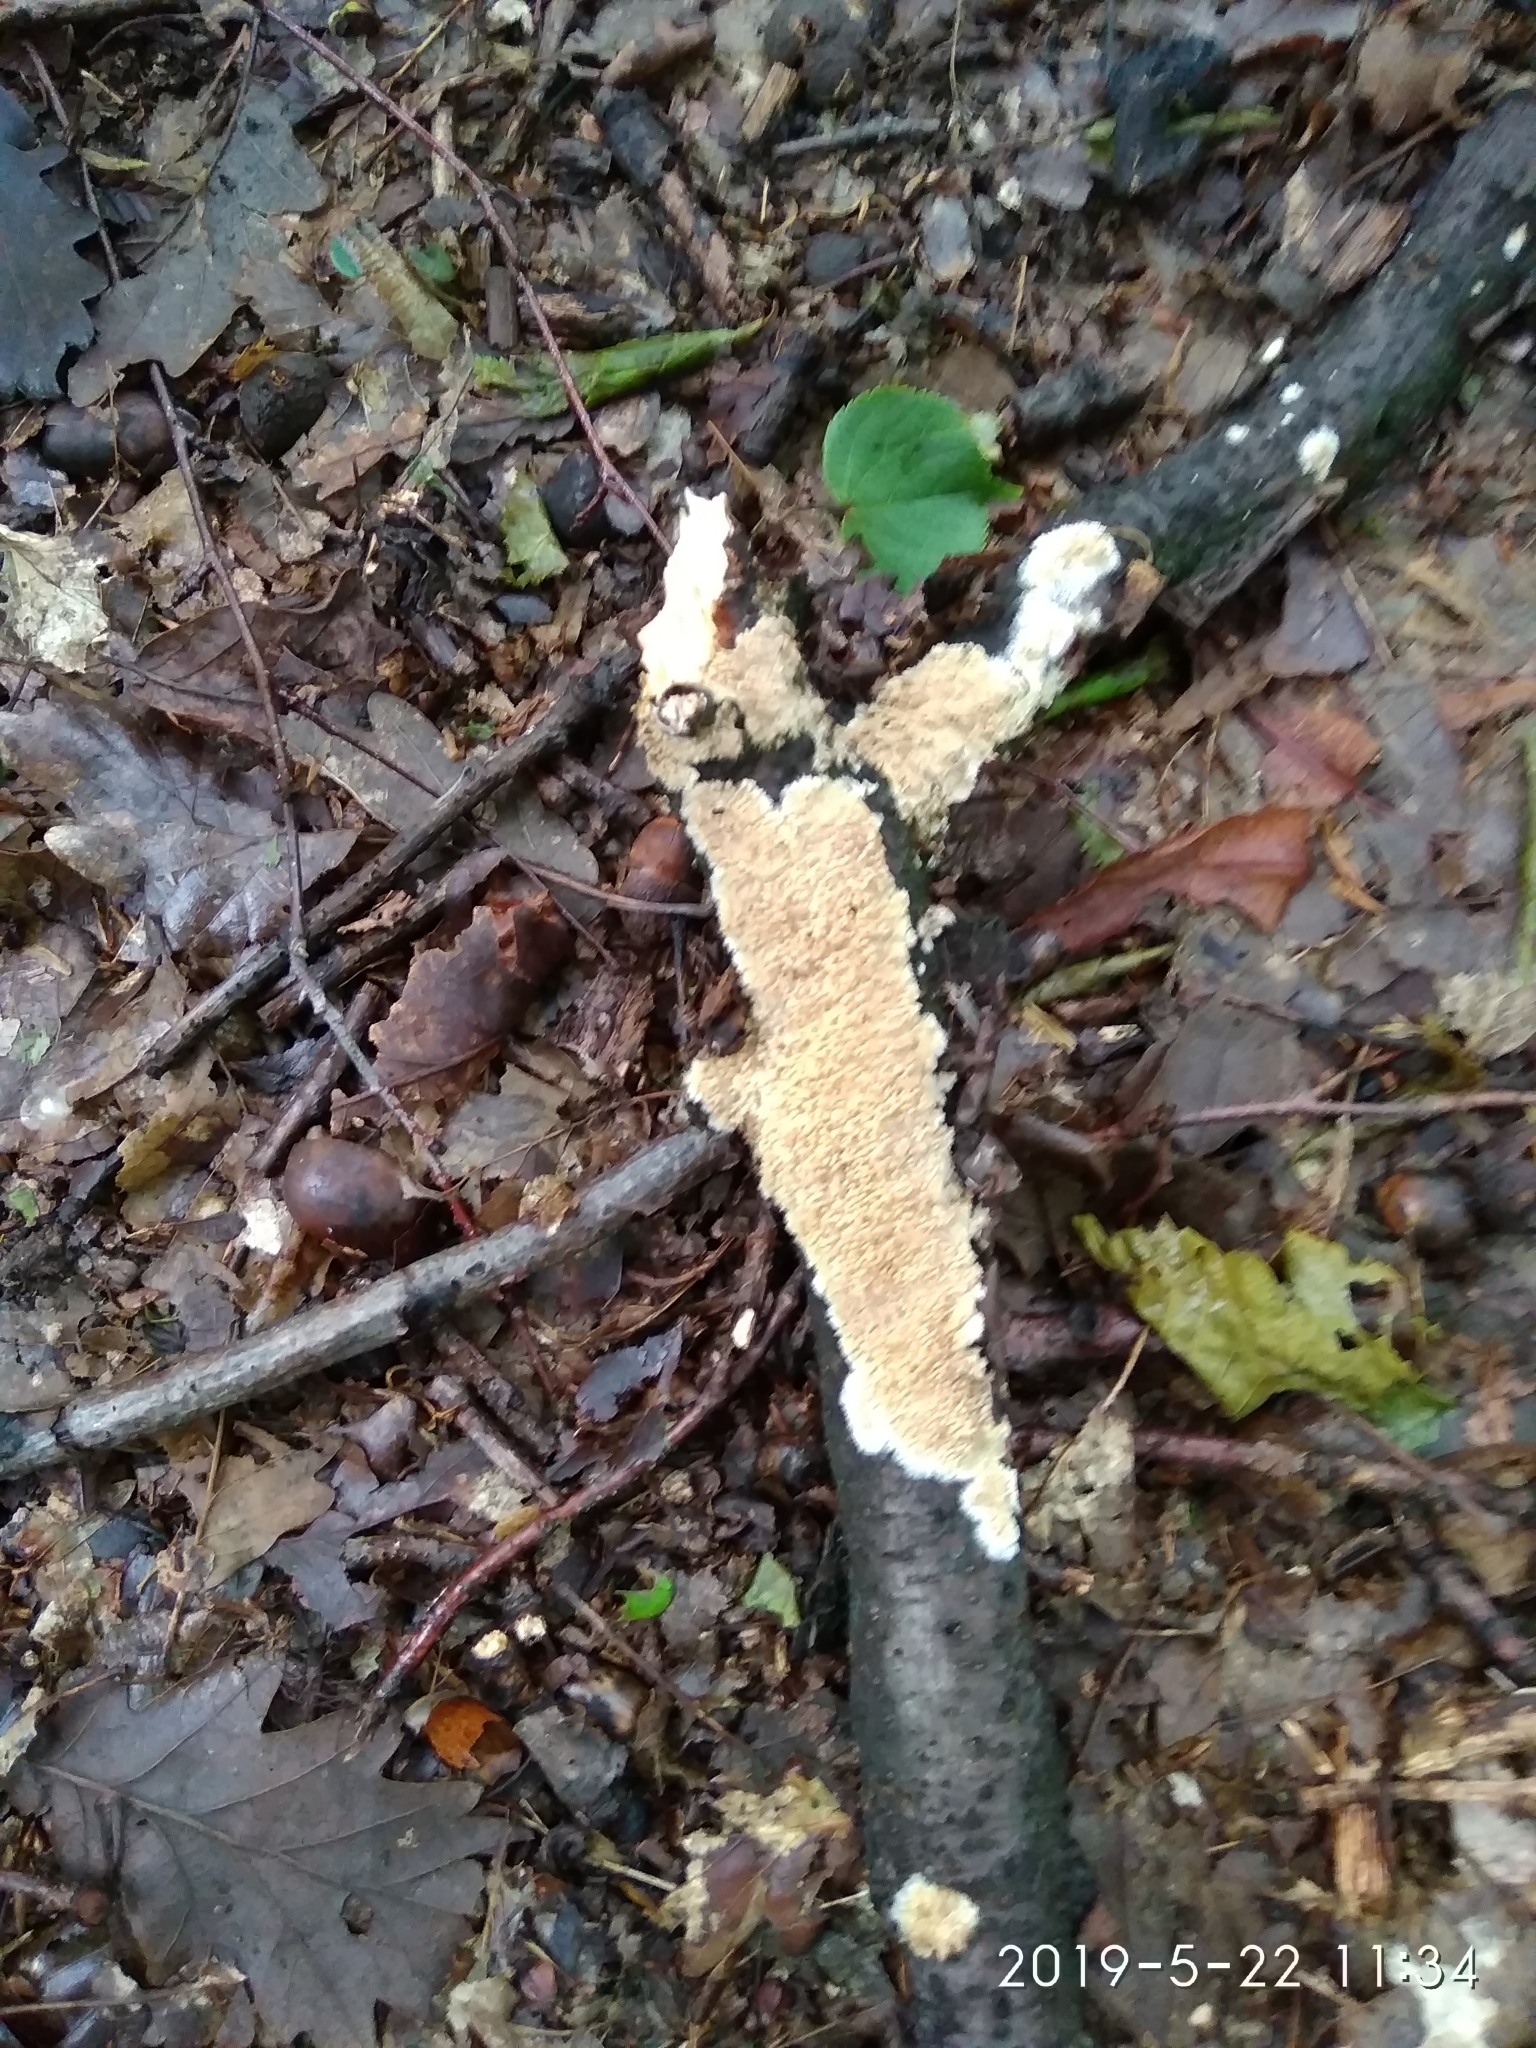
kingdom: Fungi
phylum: Basidiomycota
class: Agaricomycetes
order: Agaricales
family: Radulomycetaceae
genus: Radulomyces
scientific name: Radulomyces molaris
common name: Oak toothcrust
